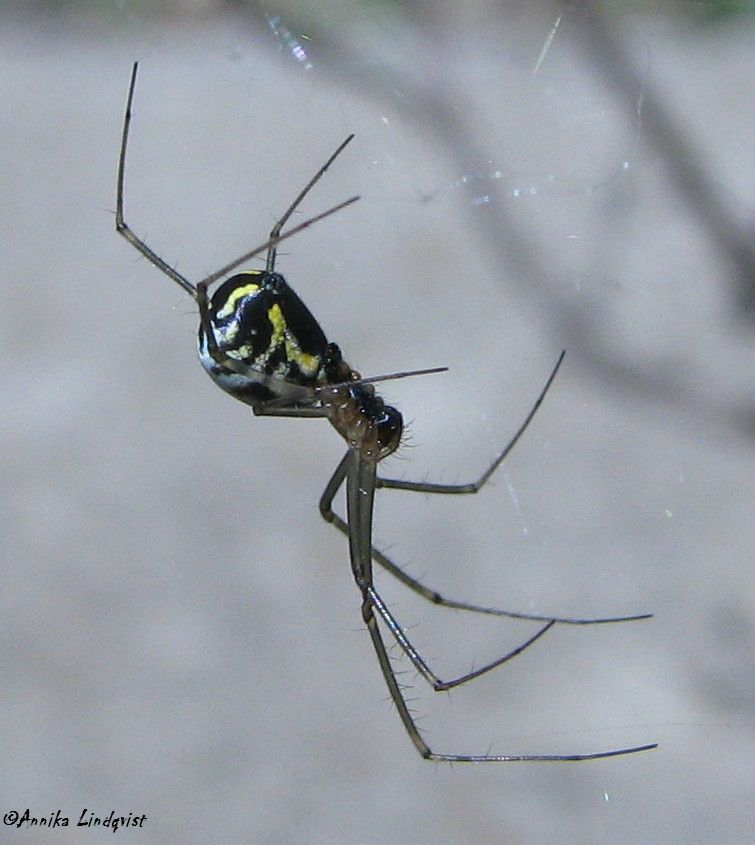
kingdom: Animalia
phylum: Arthropoda
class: Arachnida
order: Araneae
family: Linyphiidae
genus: Neriene
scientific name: Neriene radiata
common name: Filmy dome spider
